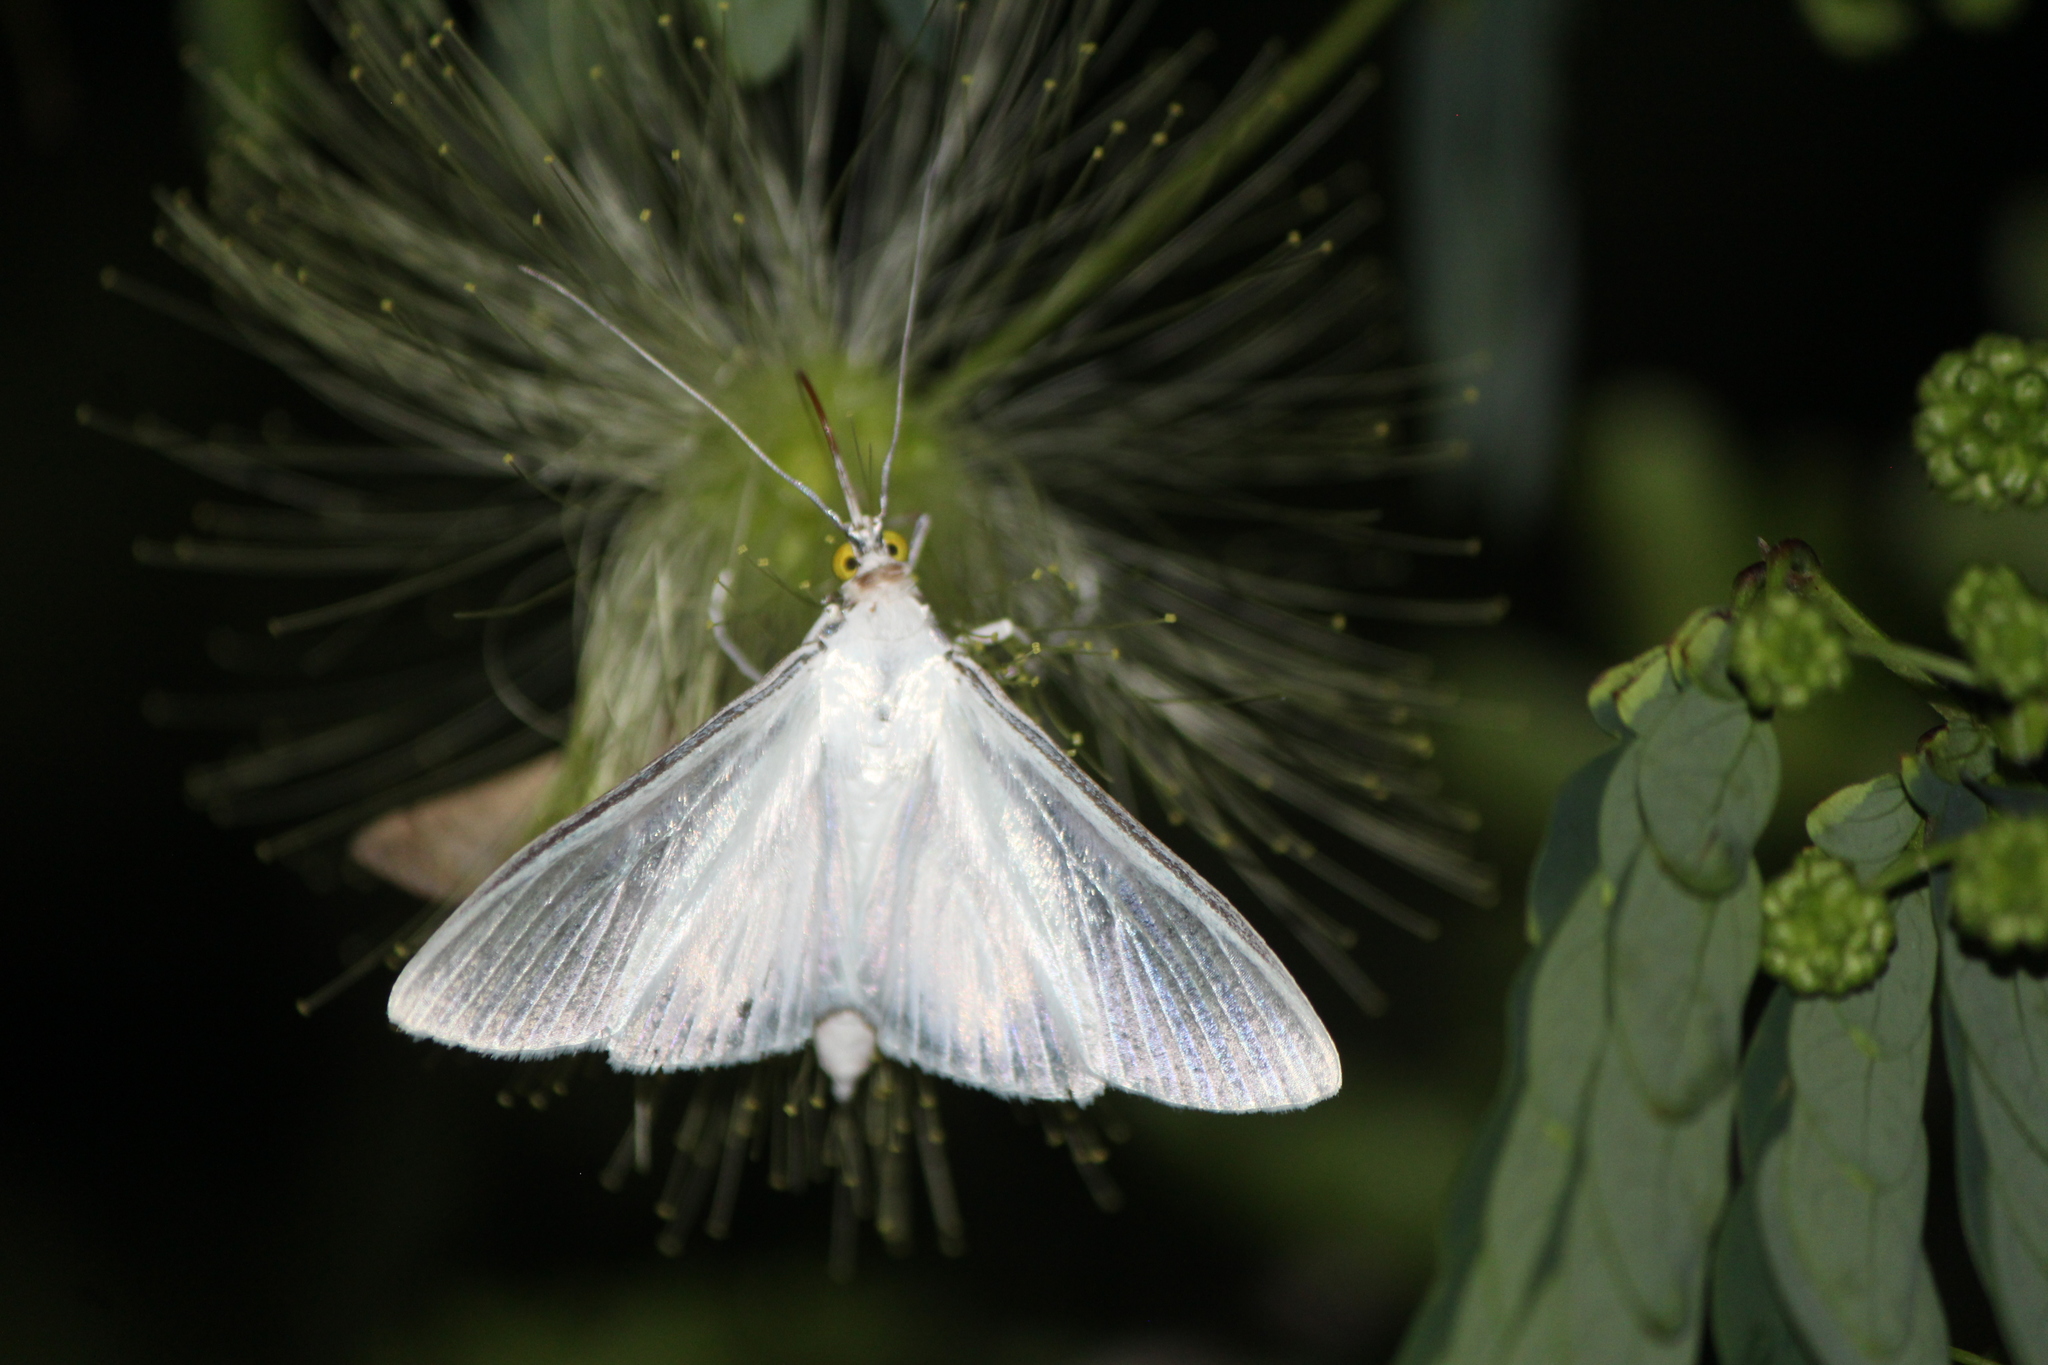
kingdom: Animalia
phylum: Arthropoda
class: Insecta
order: Lepidoptera
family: Crambidae
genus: Palpita
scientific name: Palpita flegia
